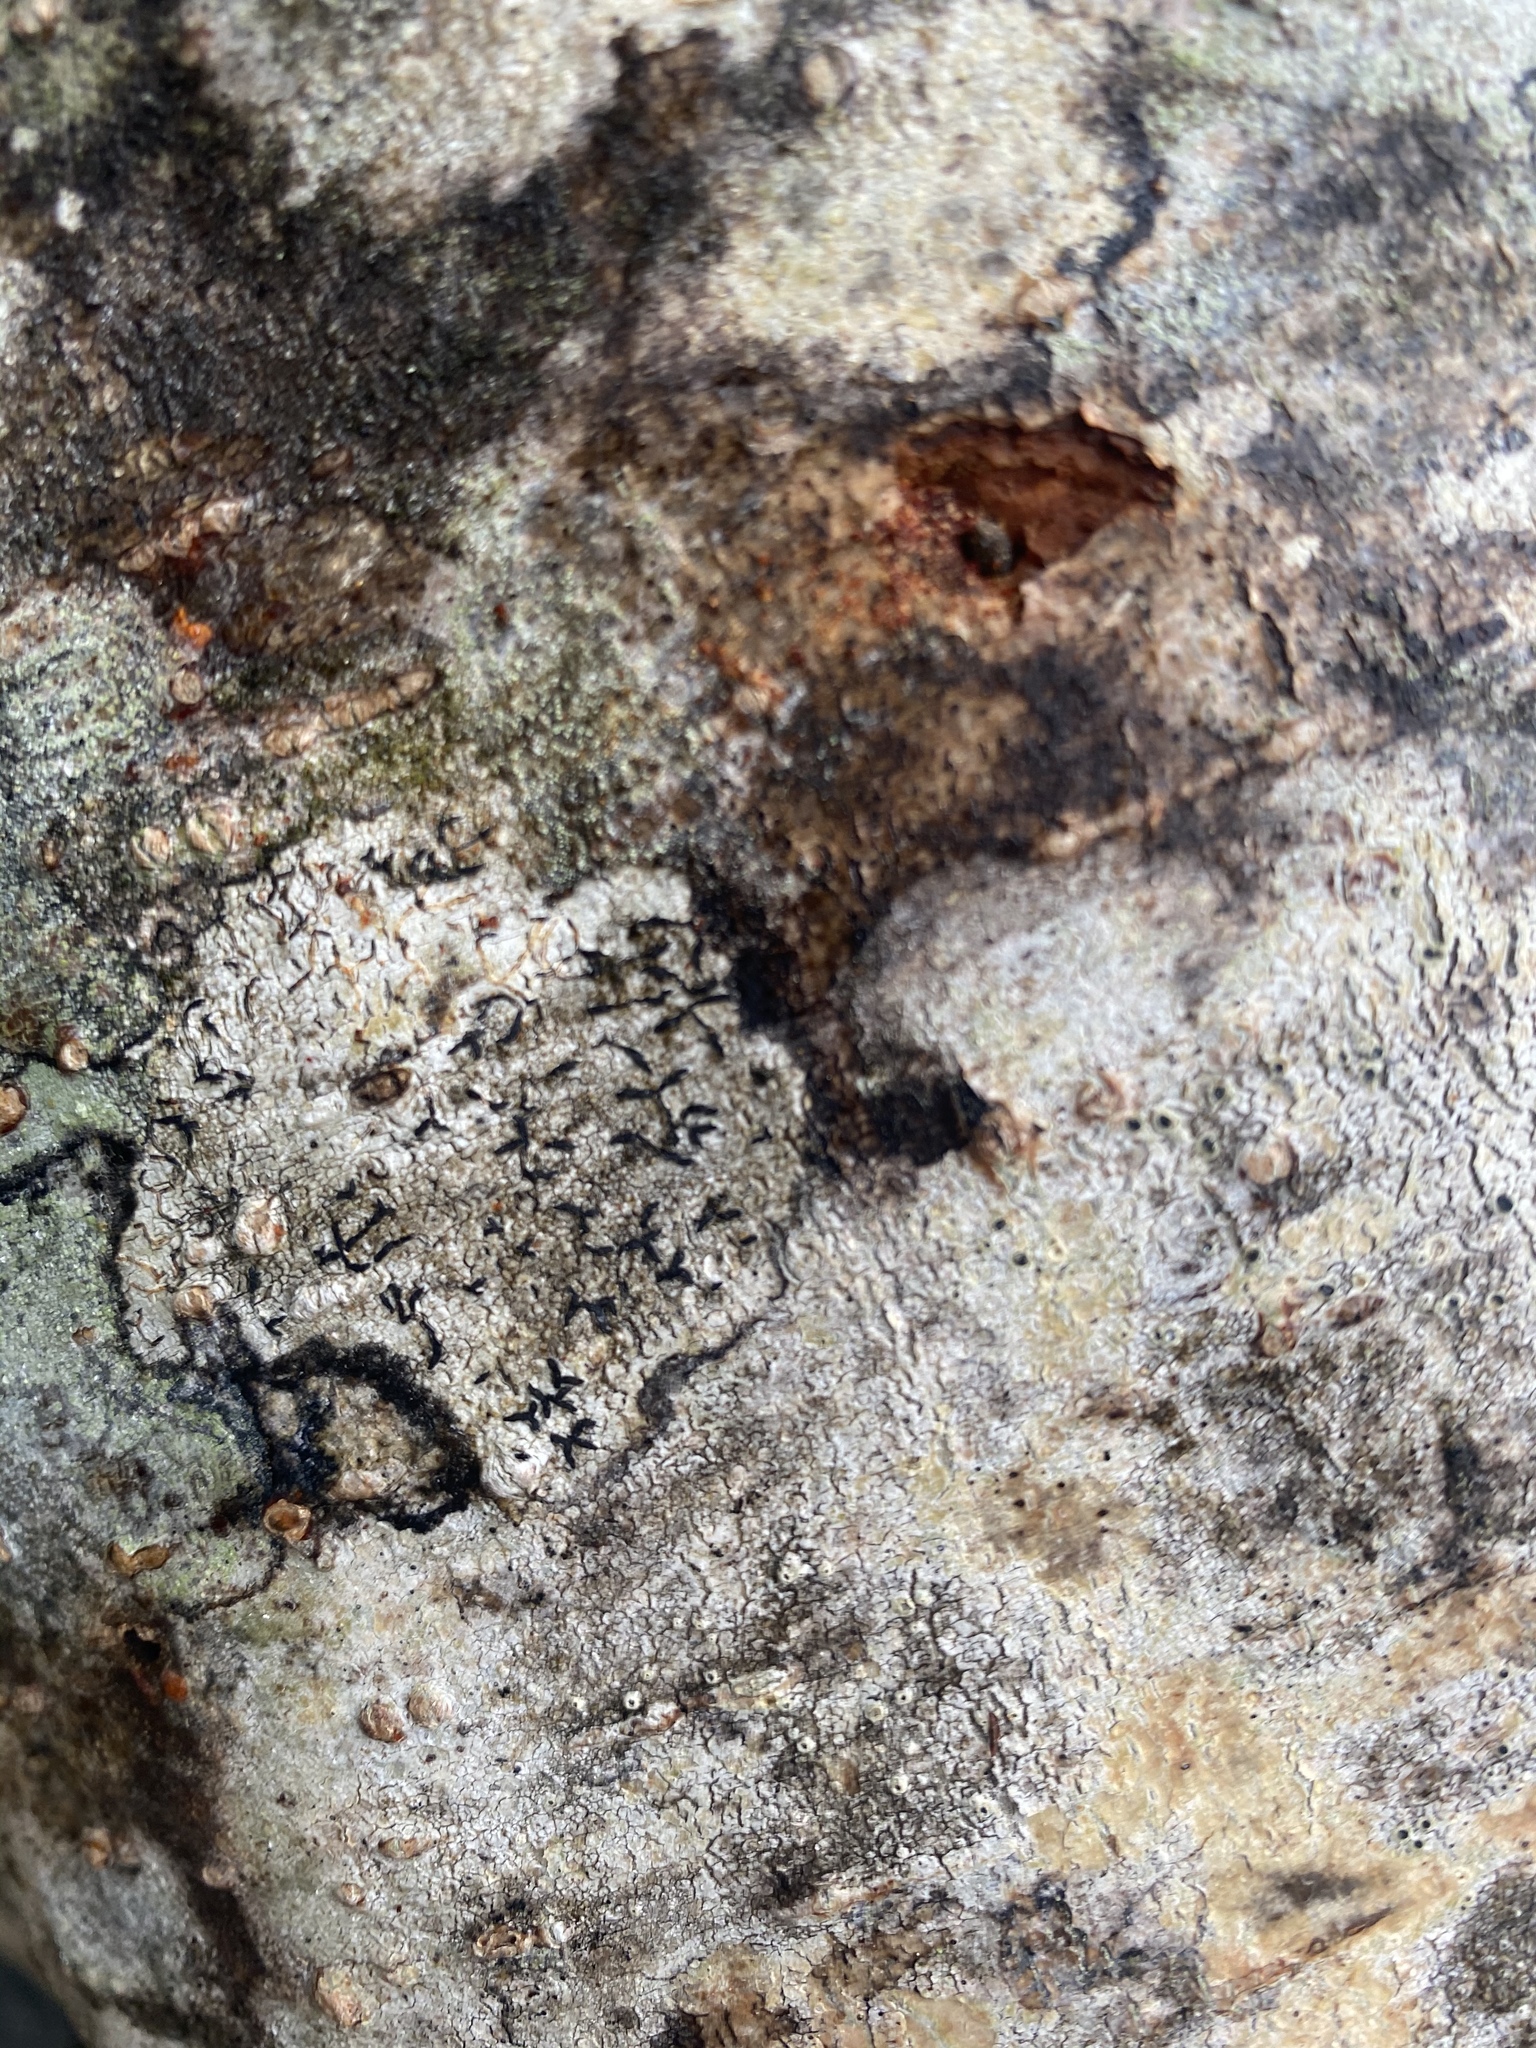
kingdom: Fungi
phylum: Ascomycota
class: Lecanoromycetes
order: Ostropales
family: Graphidaceae
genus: Graphis
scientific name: Graphis scripta
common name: Script lichen
